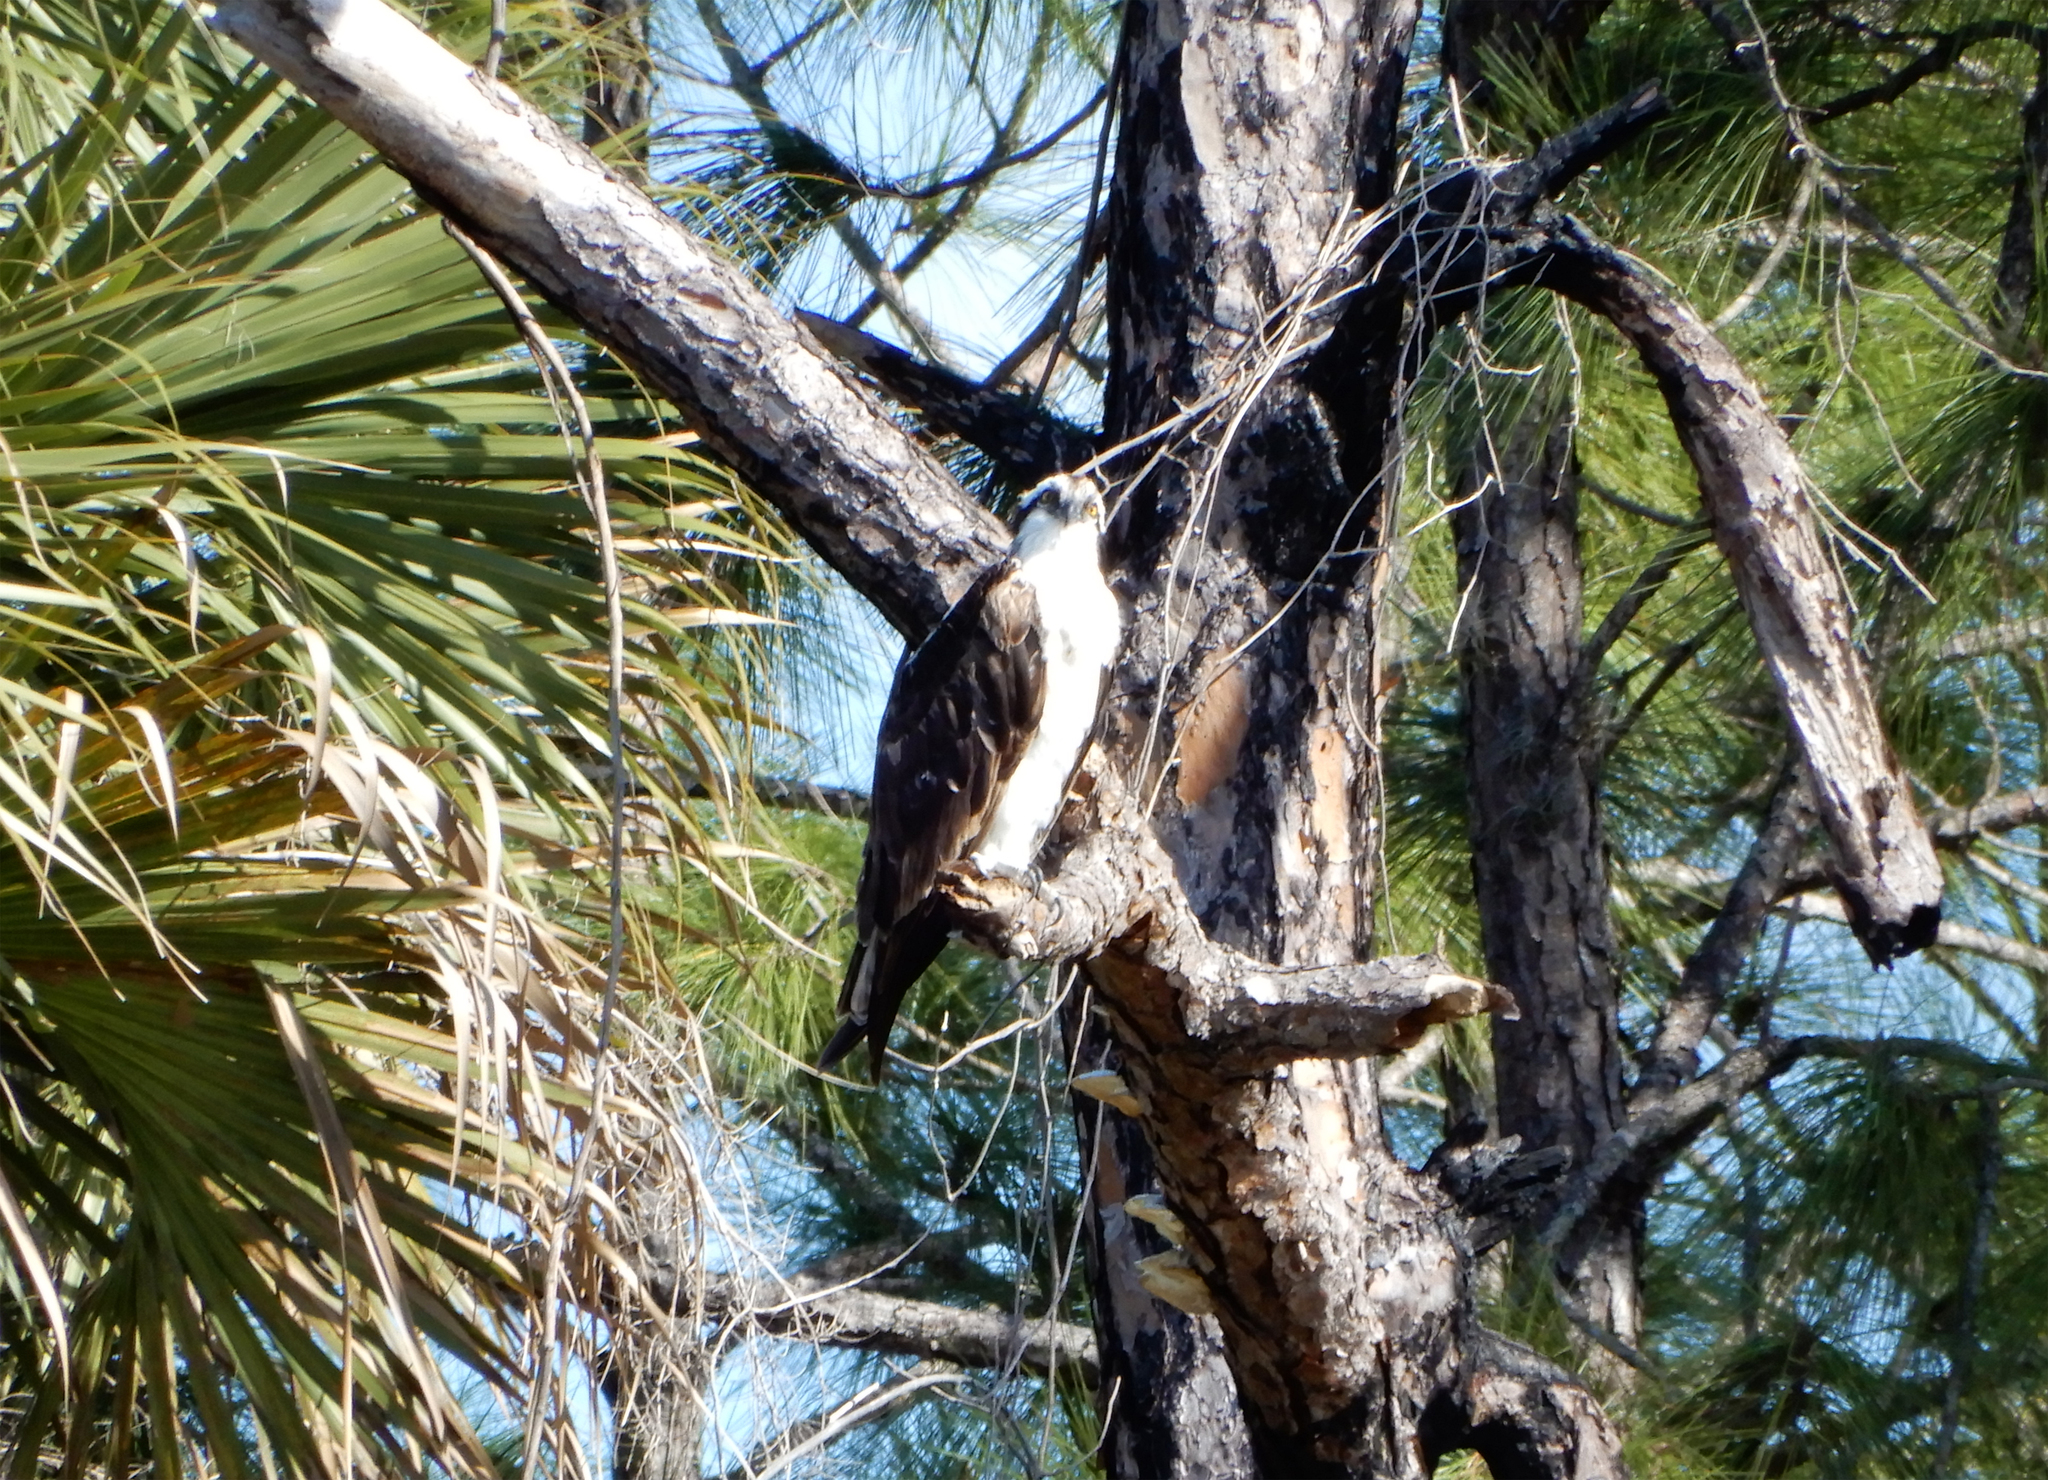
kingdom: Animalia
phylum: Chordata
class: Aves
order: Accipitriformes
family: Pandionidae
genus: Pandion
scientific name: Pandion haliaetus
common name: Osprey
